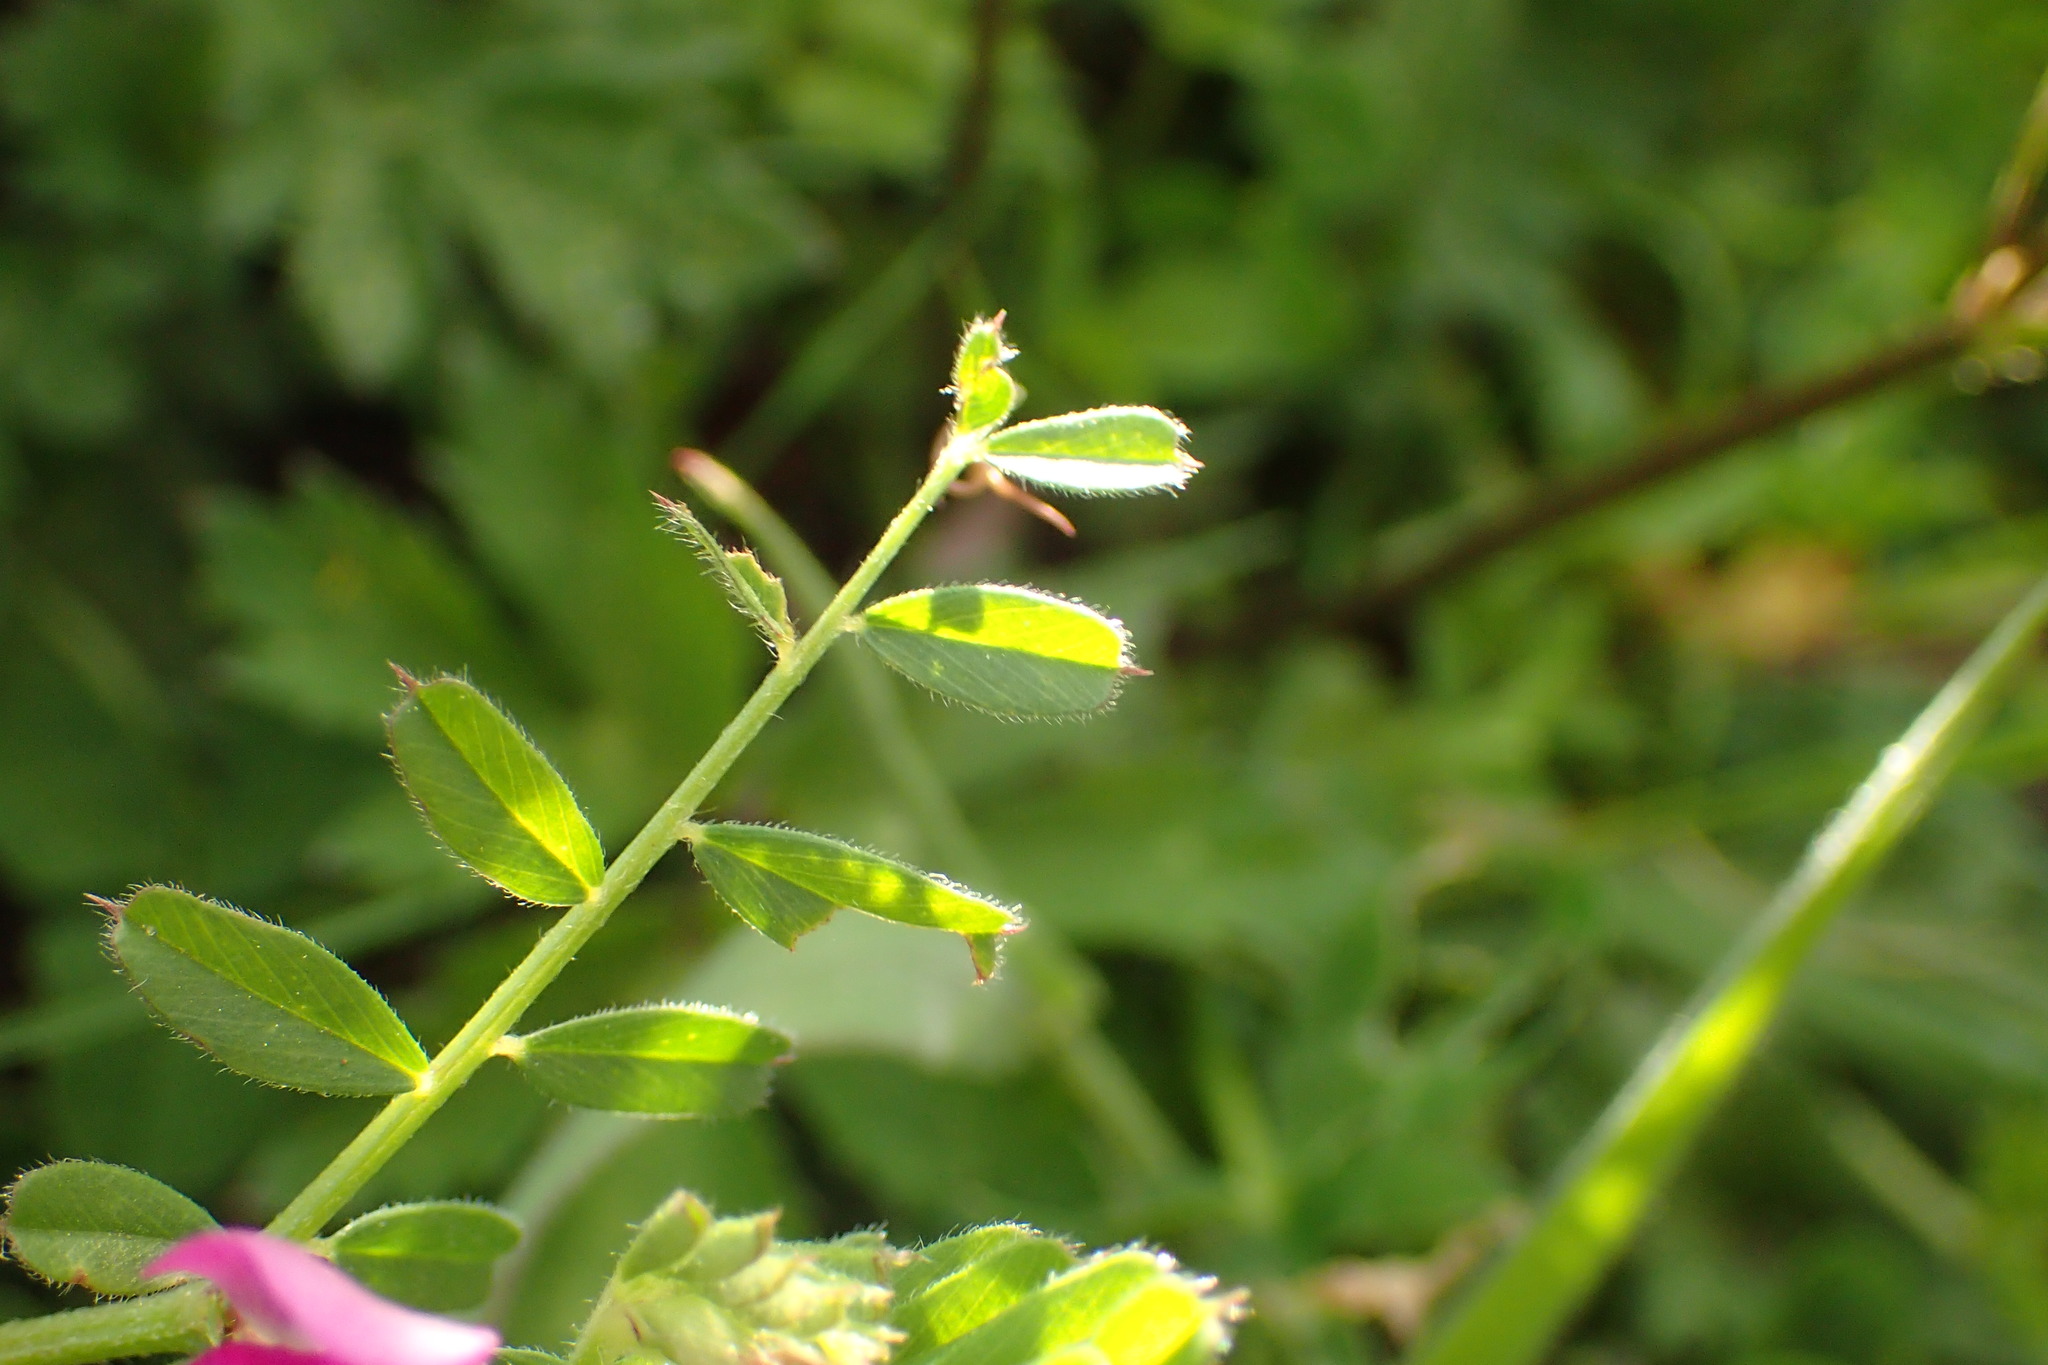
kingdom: Plantae
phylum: Tracheophyta
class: Magnoliopsida
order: Fabales
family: Fabaceae
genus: Vicia
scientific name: Vicia sativa
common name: Garden vetch
